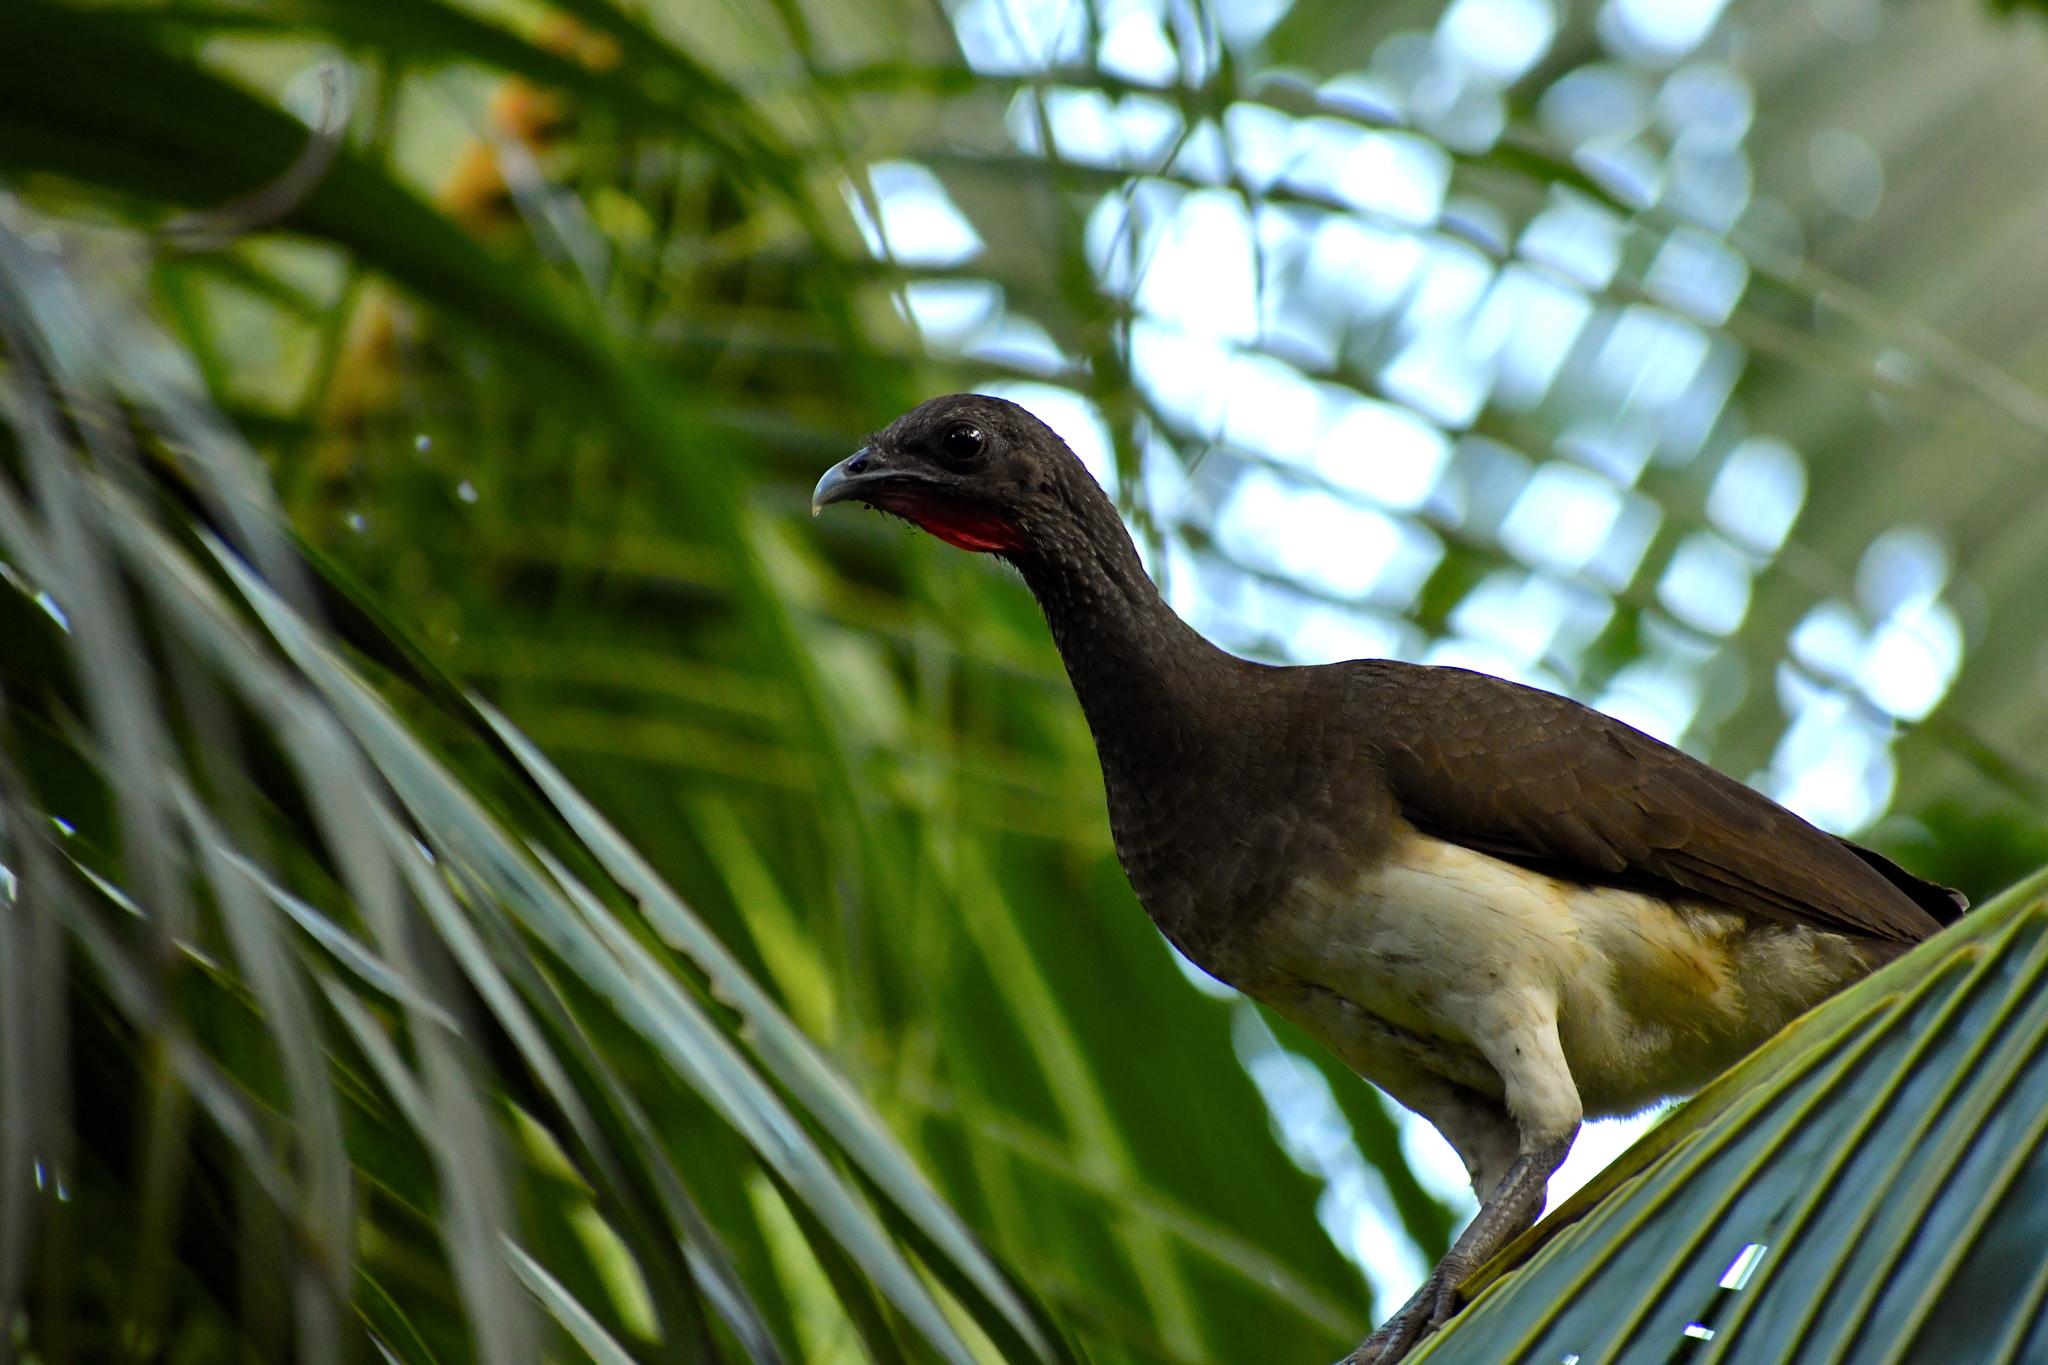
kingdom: Animalia
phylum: Chordata
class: Aves
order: Galliformes
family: Cracidae
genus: Ortalis
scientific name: Ortalis leucogastra
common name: White-bellied chachalaca
